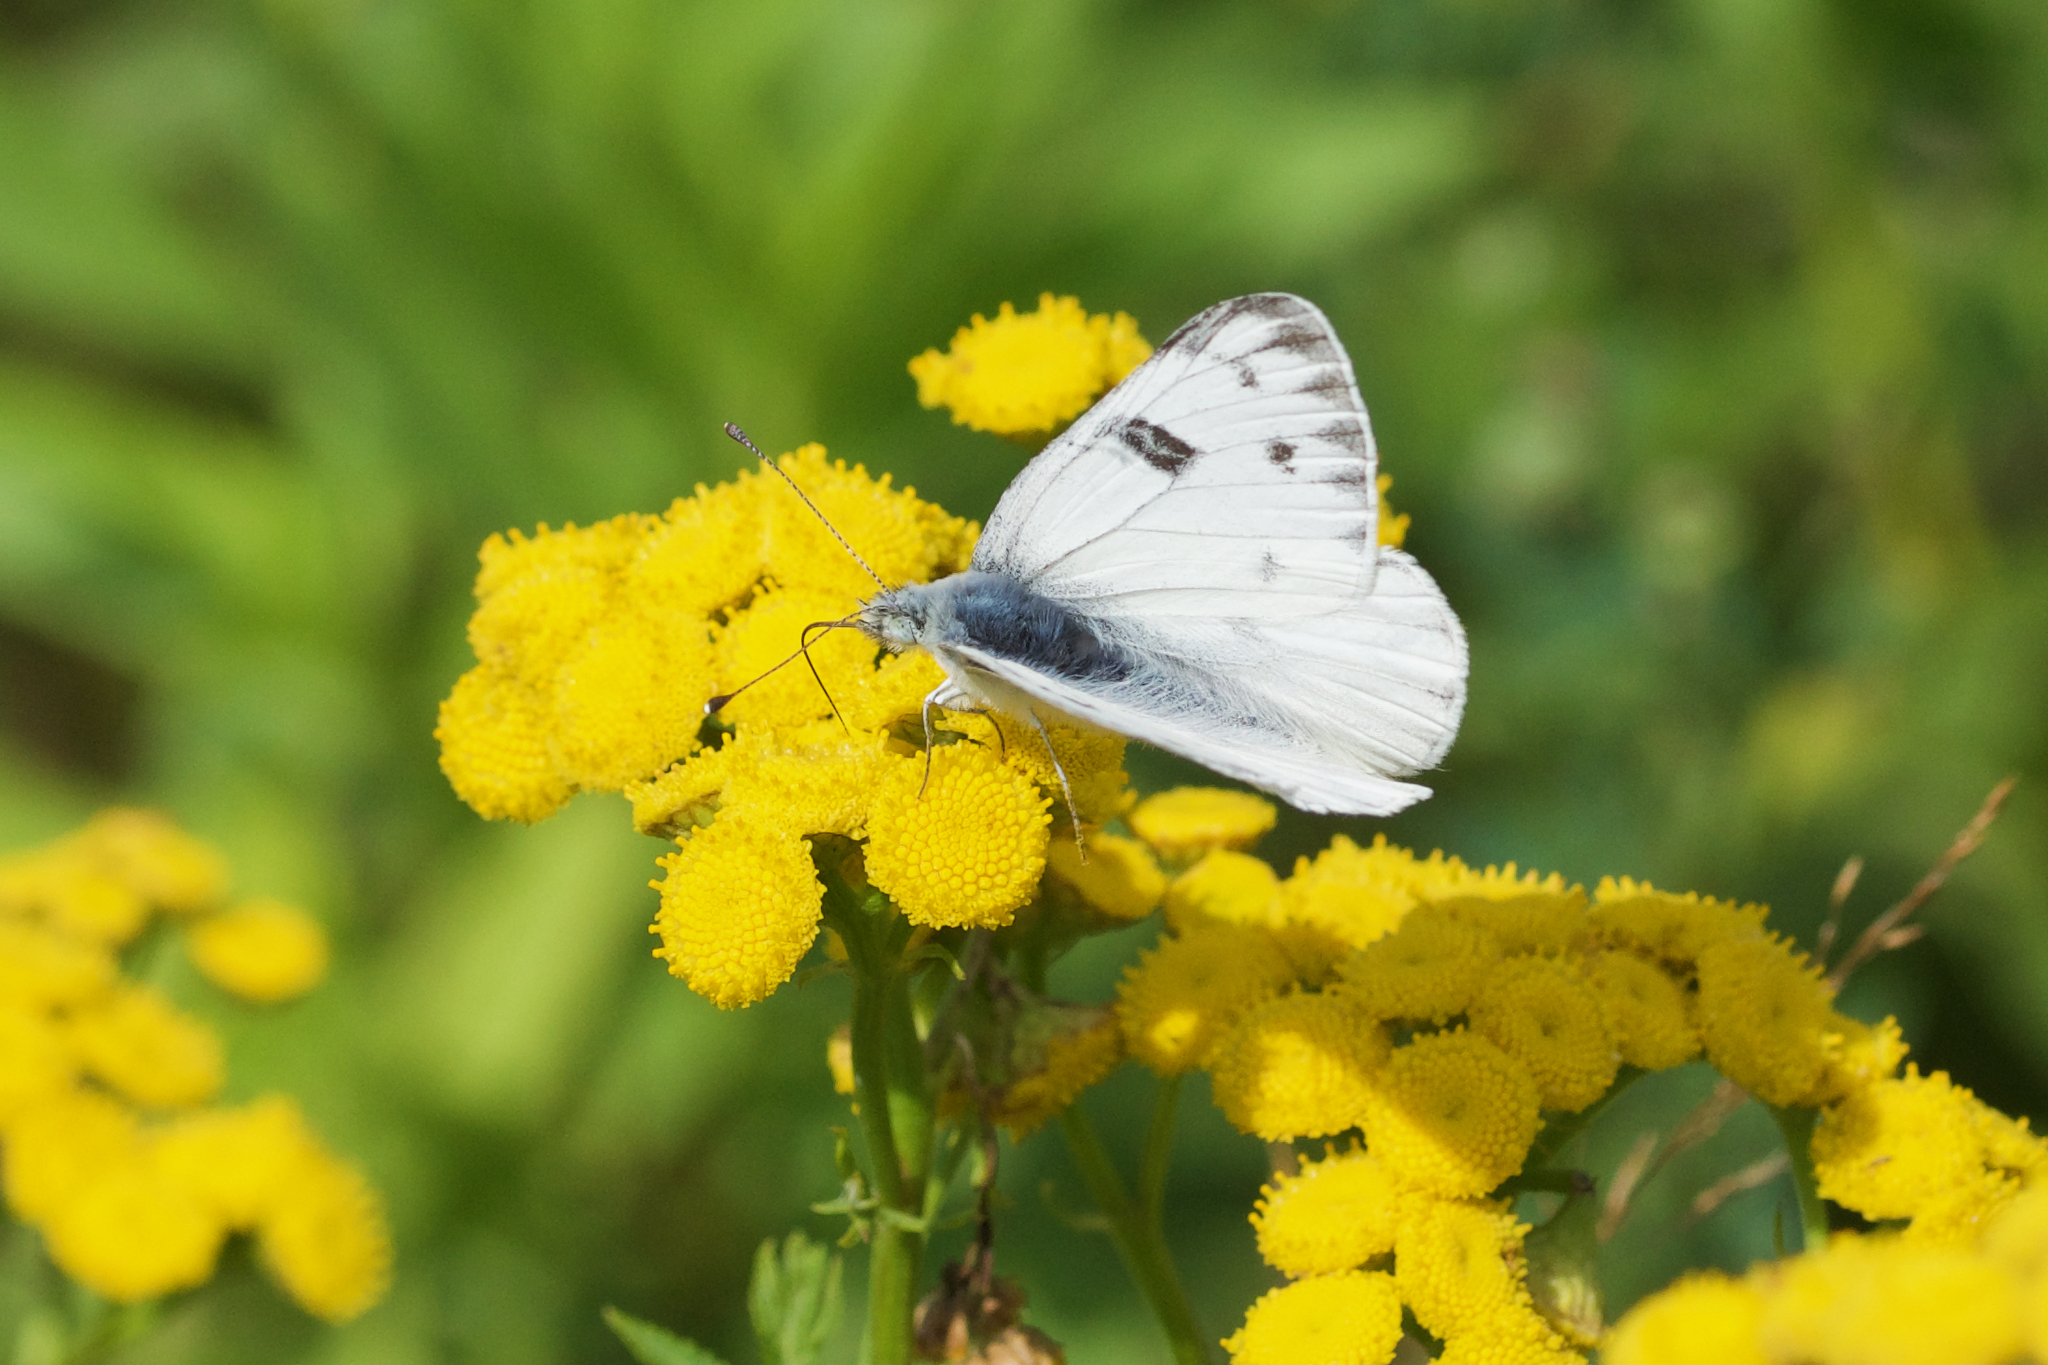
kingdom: Animalia
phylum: Arthropoda
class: Insecta
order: Lepidoptera
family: Pieridae
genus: Pontia
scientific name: Pontia occidentalis
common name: Western white
